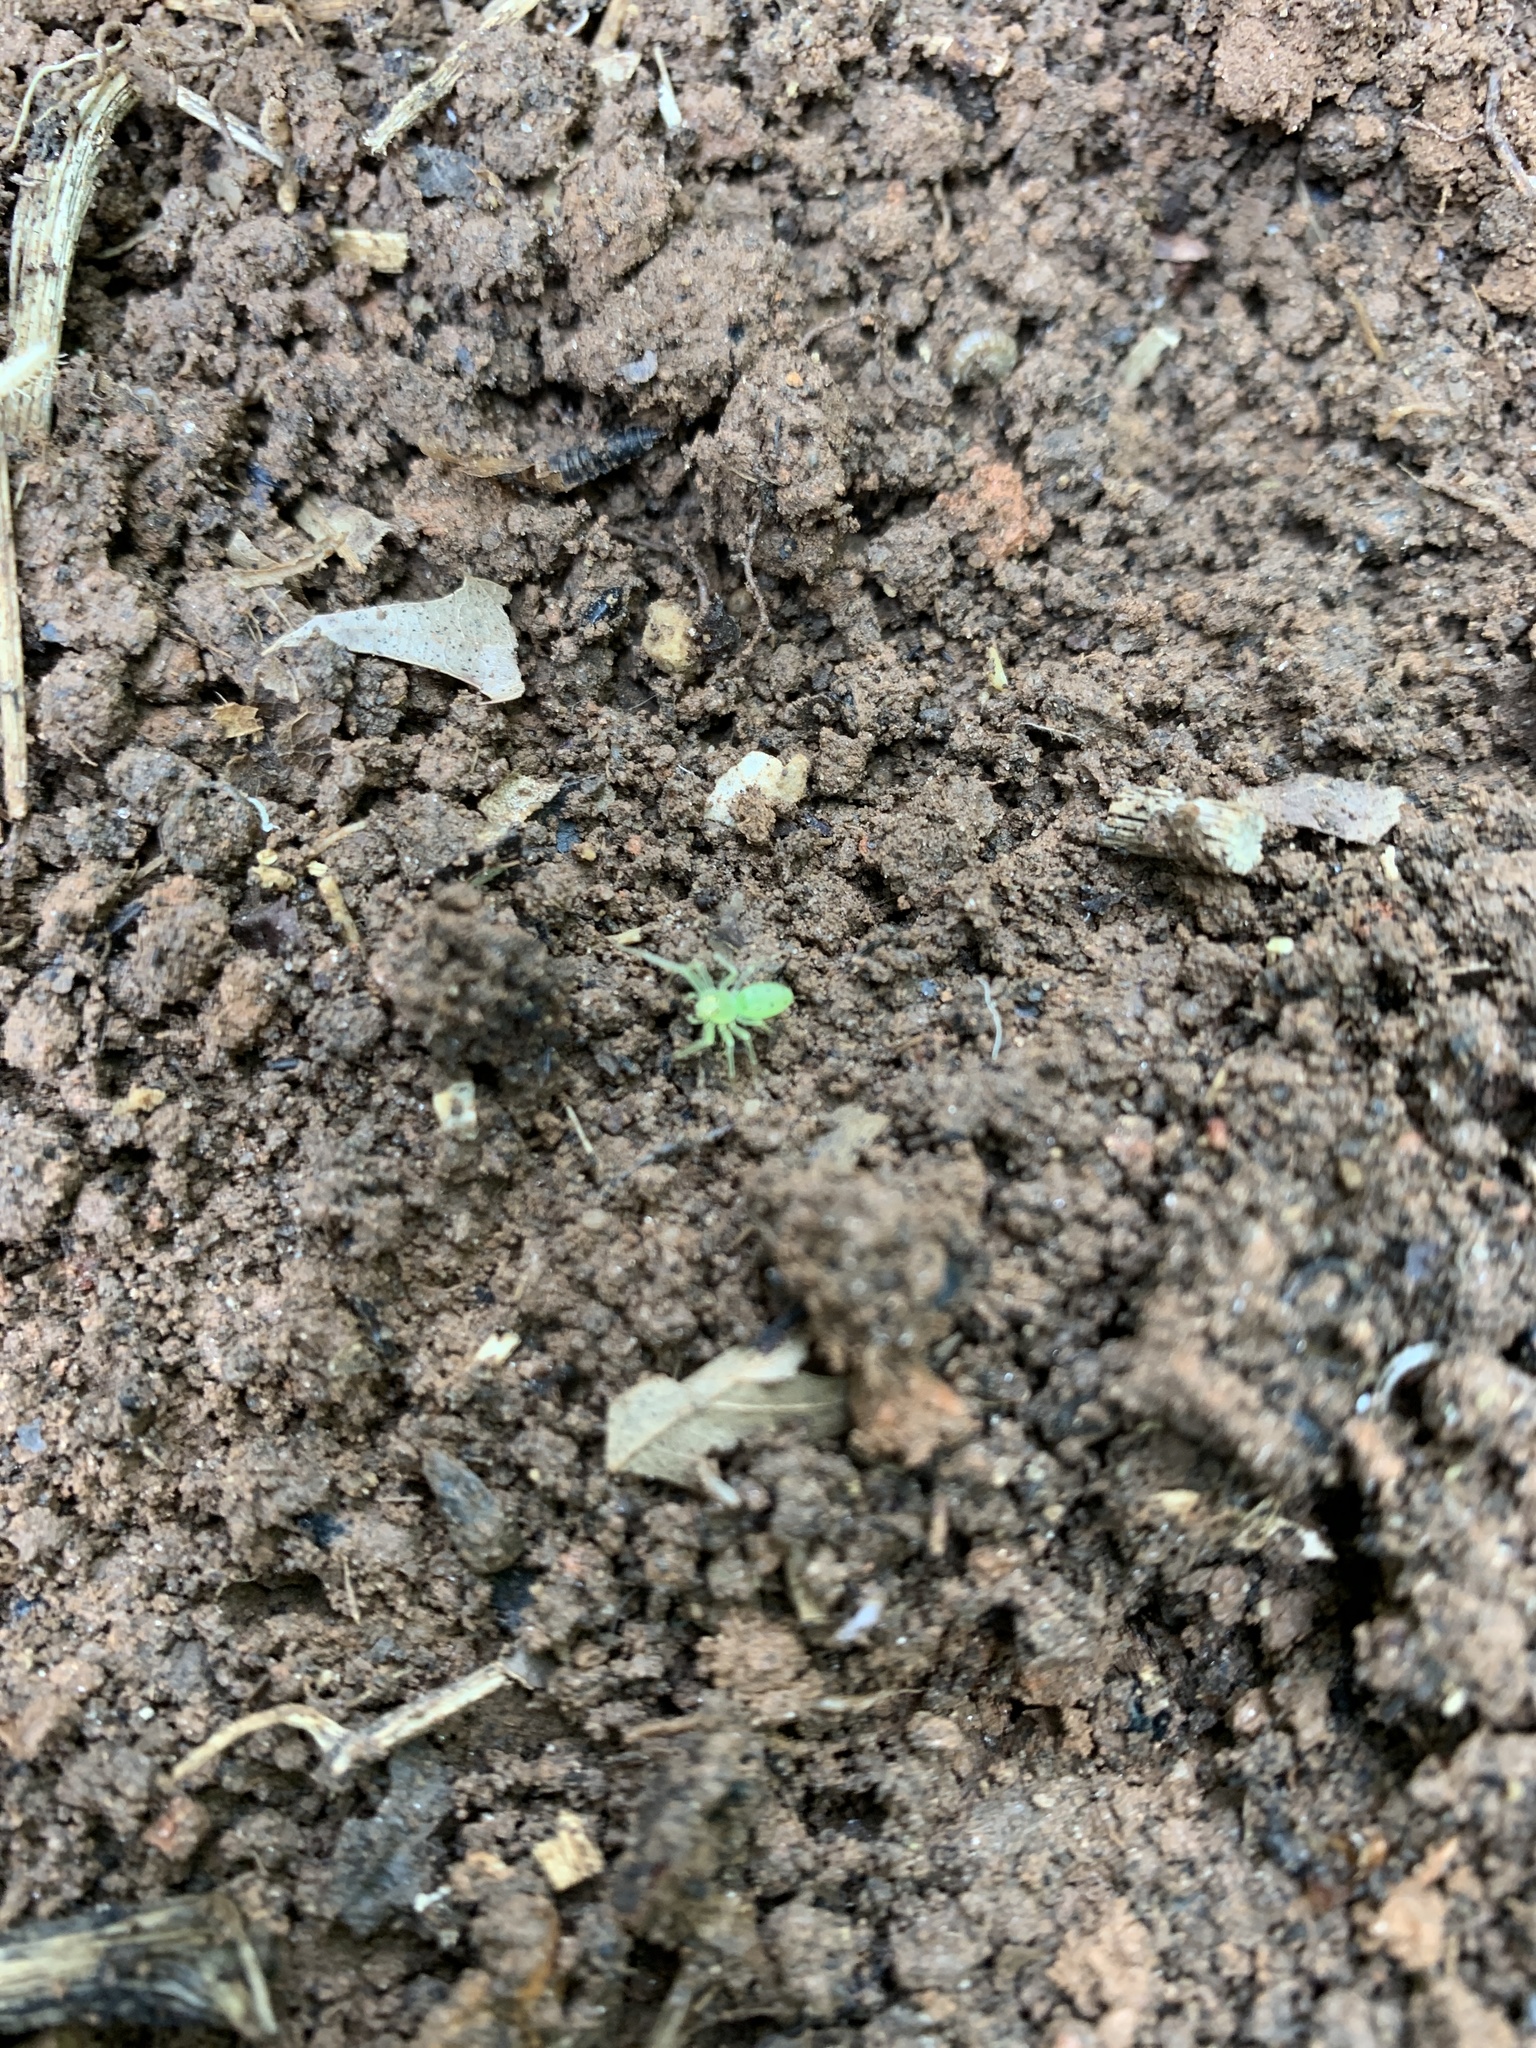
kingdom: Animalia
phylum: Arthropoda
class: Arachnida
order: Araneae
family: Salticidae
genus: Lyssomanes
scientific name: Lyssomanes viridis
